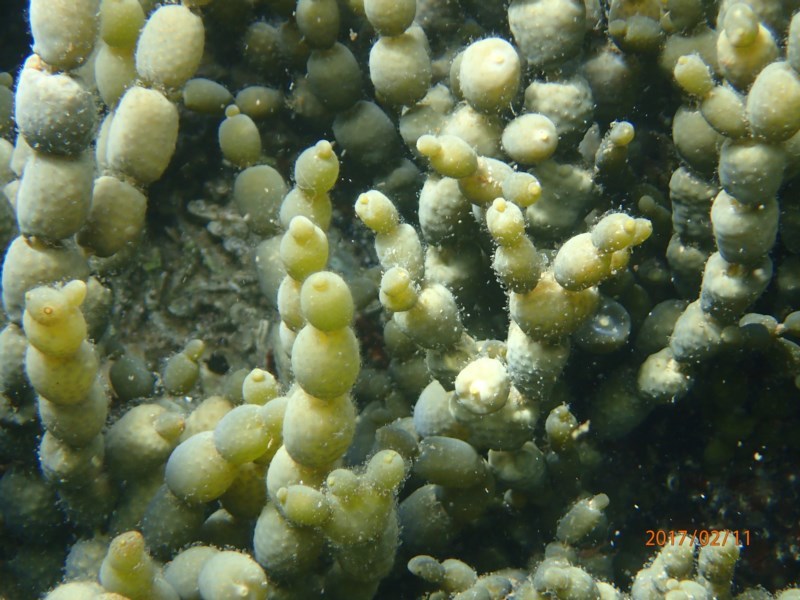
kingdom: Chromista
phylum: Ochrophyta
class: Phaeophyceae
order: Fucales
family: Hormosiraceae
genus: Hormosira
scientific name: Hormosira banksii
